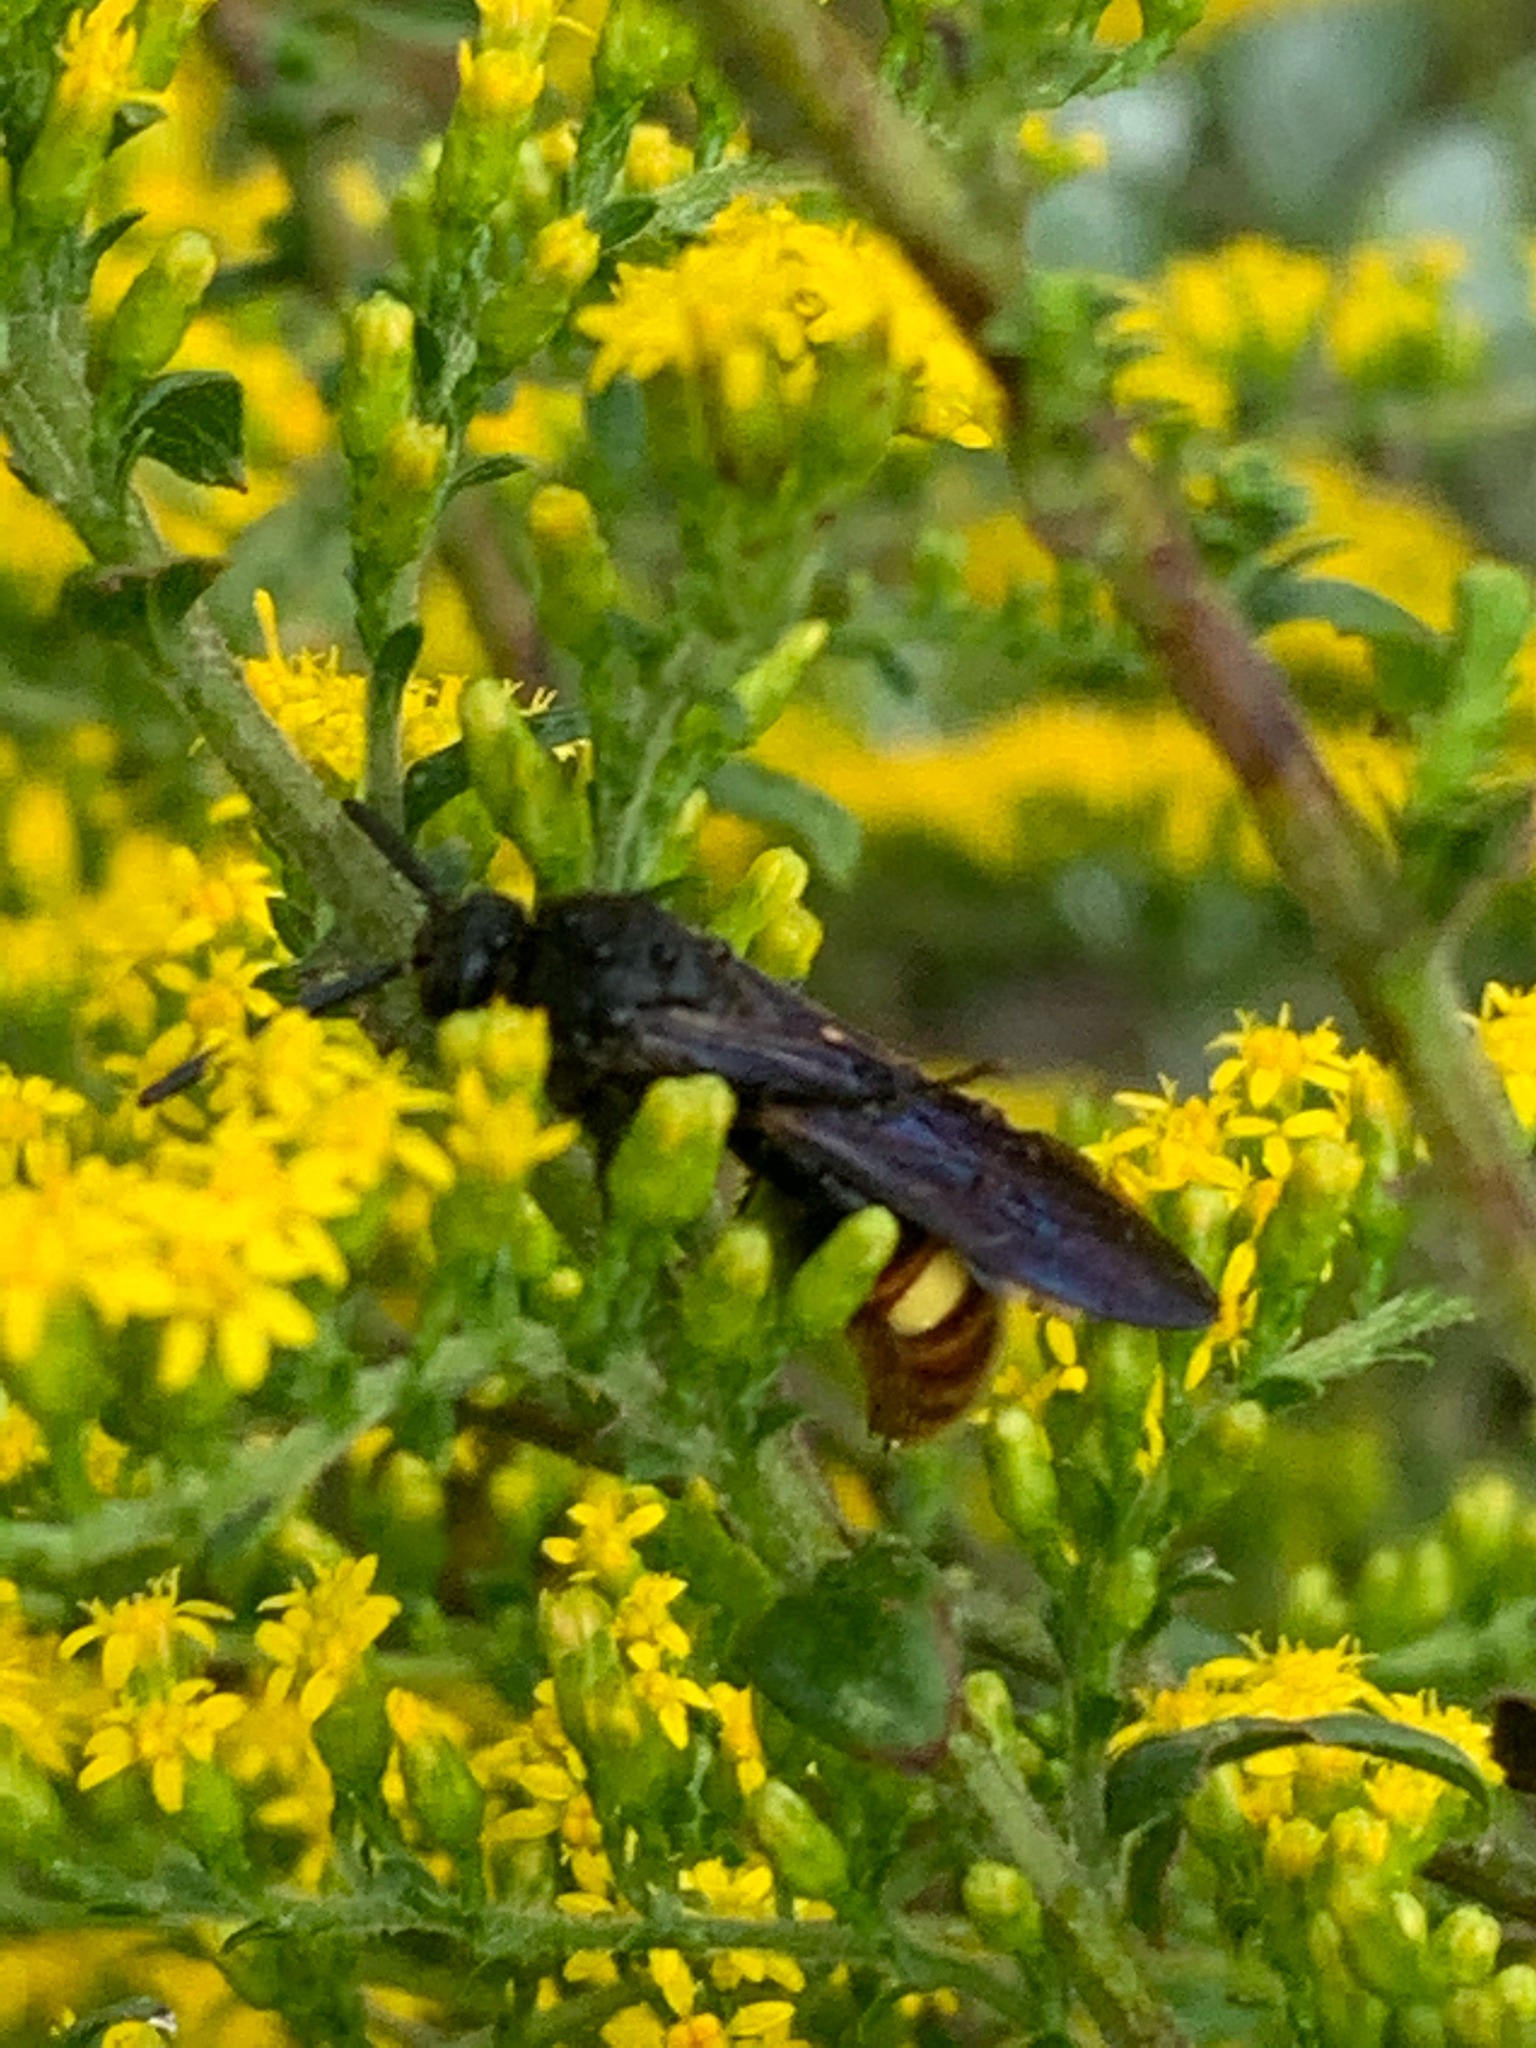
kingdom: Animalia
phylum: Arthropoda
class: Insecta
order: Hymenoptera
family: Scoliidae
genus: Scolia
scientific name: Scolia dubia
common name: Blue-winged scoliid wasp
